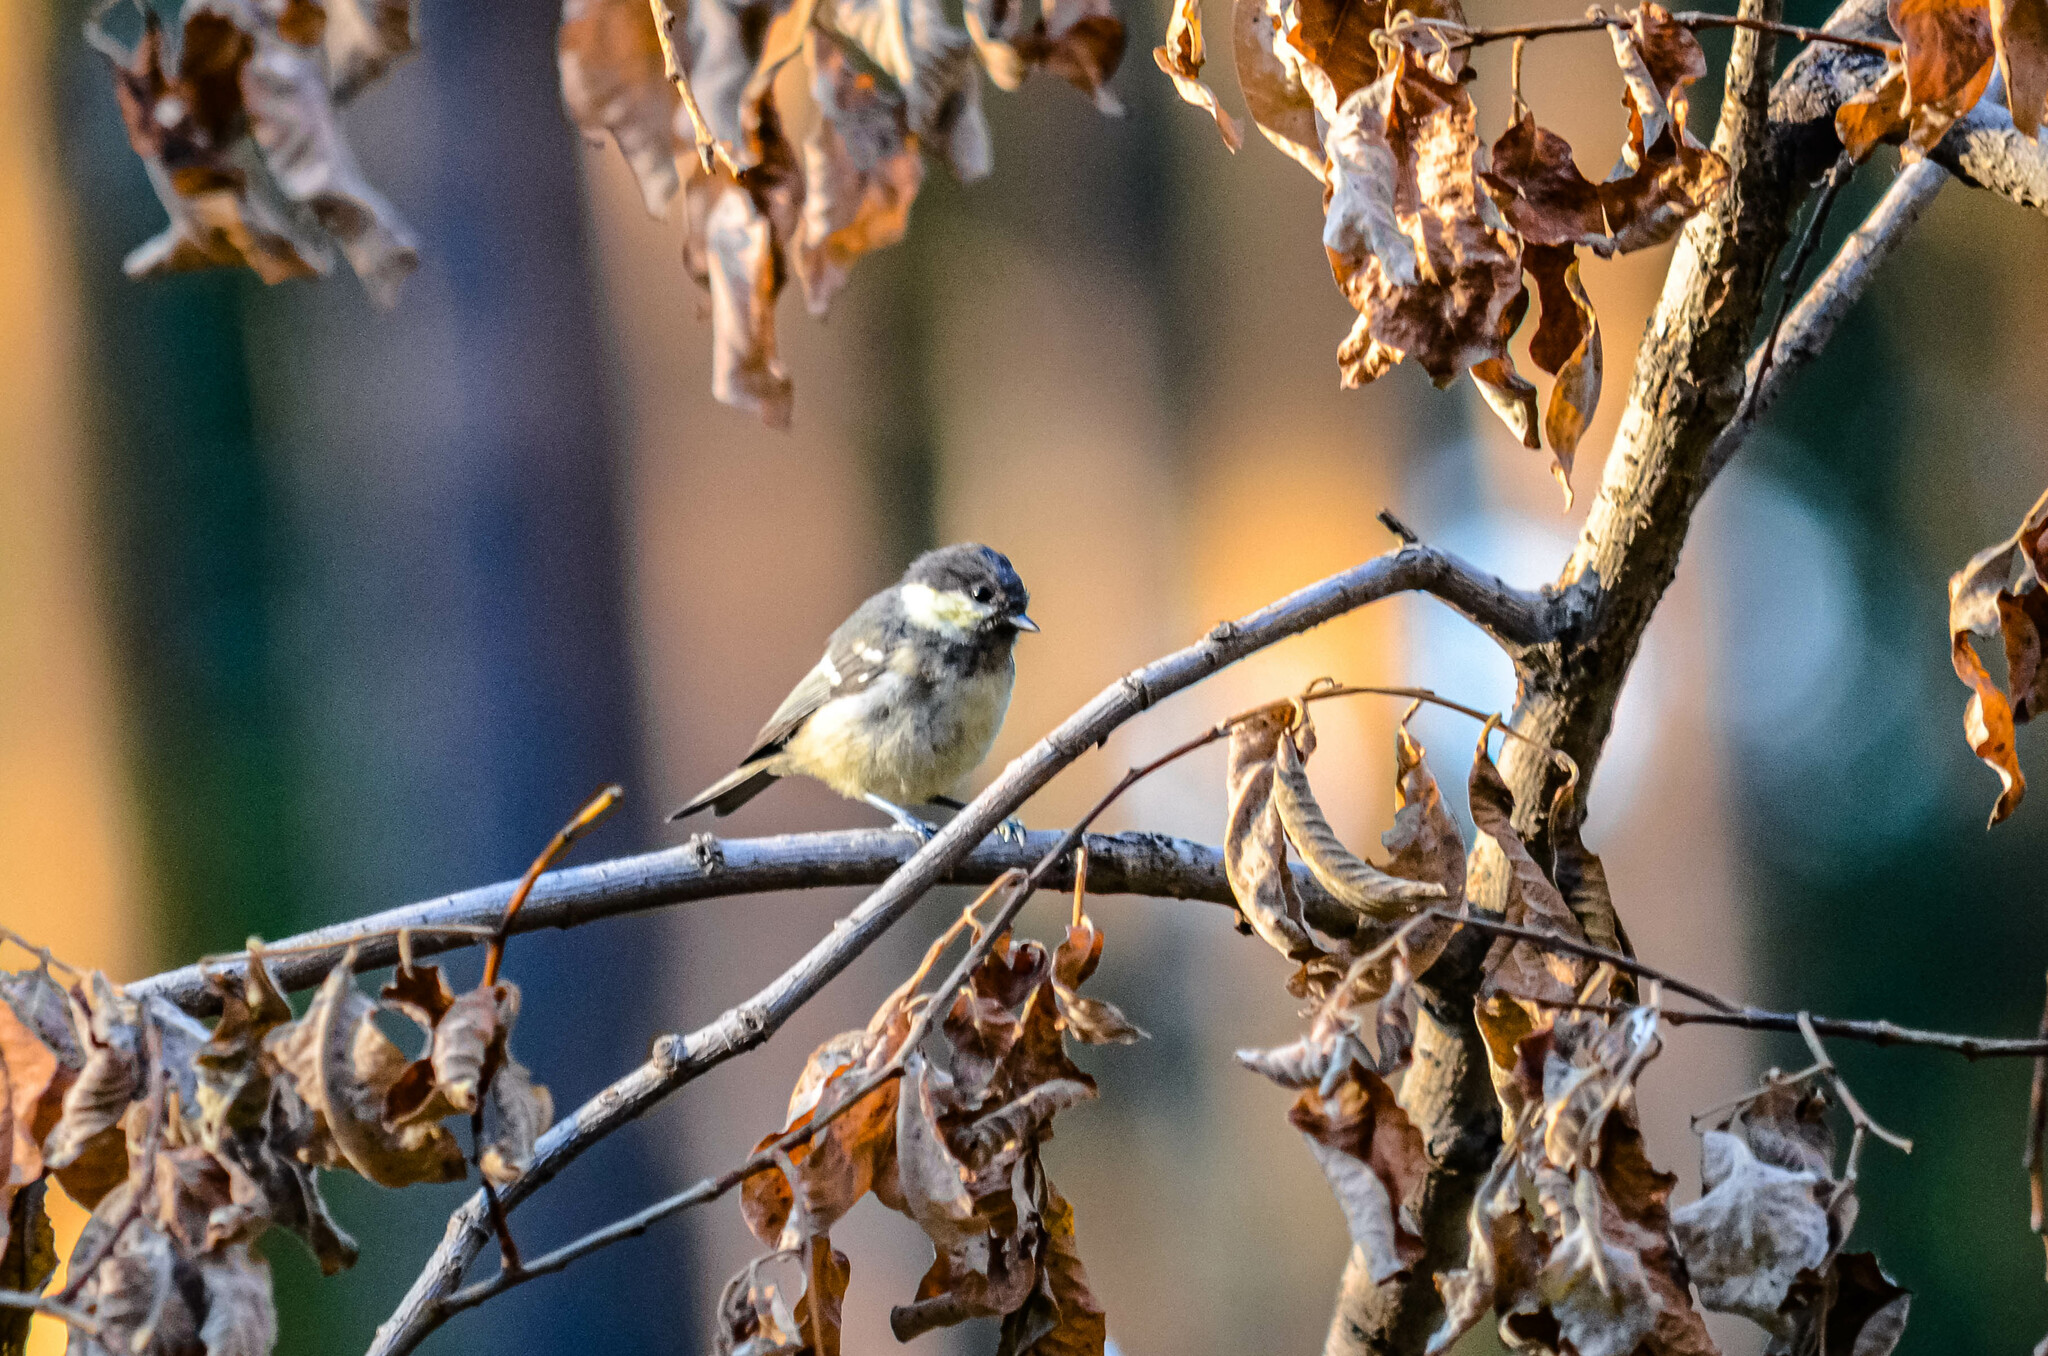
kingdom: Animalia
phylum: Chordata
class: Aves
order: Passeriformes
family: Paridae
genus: Periparus
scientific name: Periparus ater
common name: Coal tit
